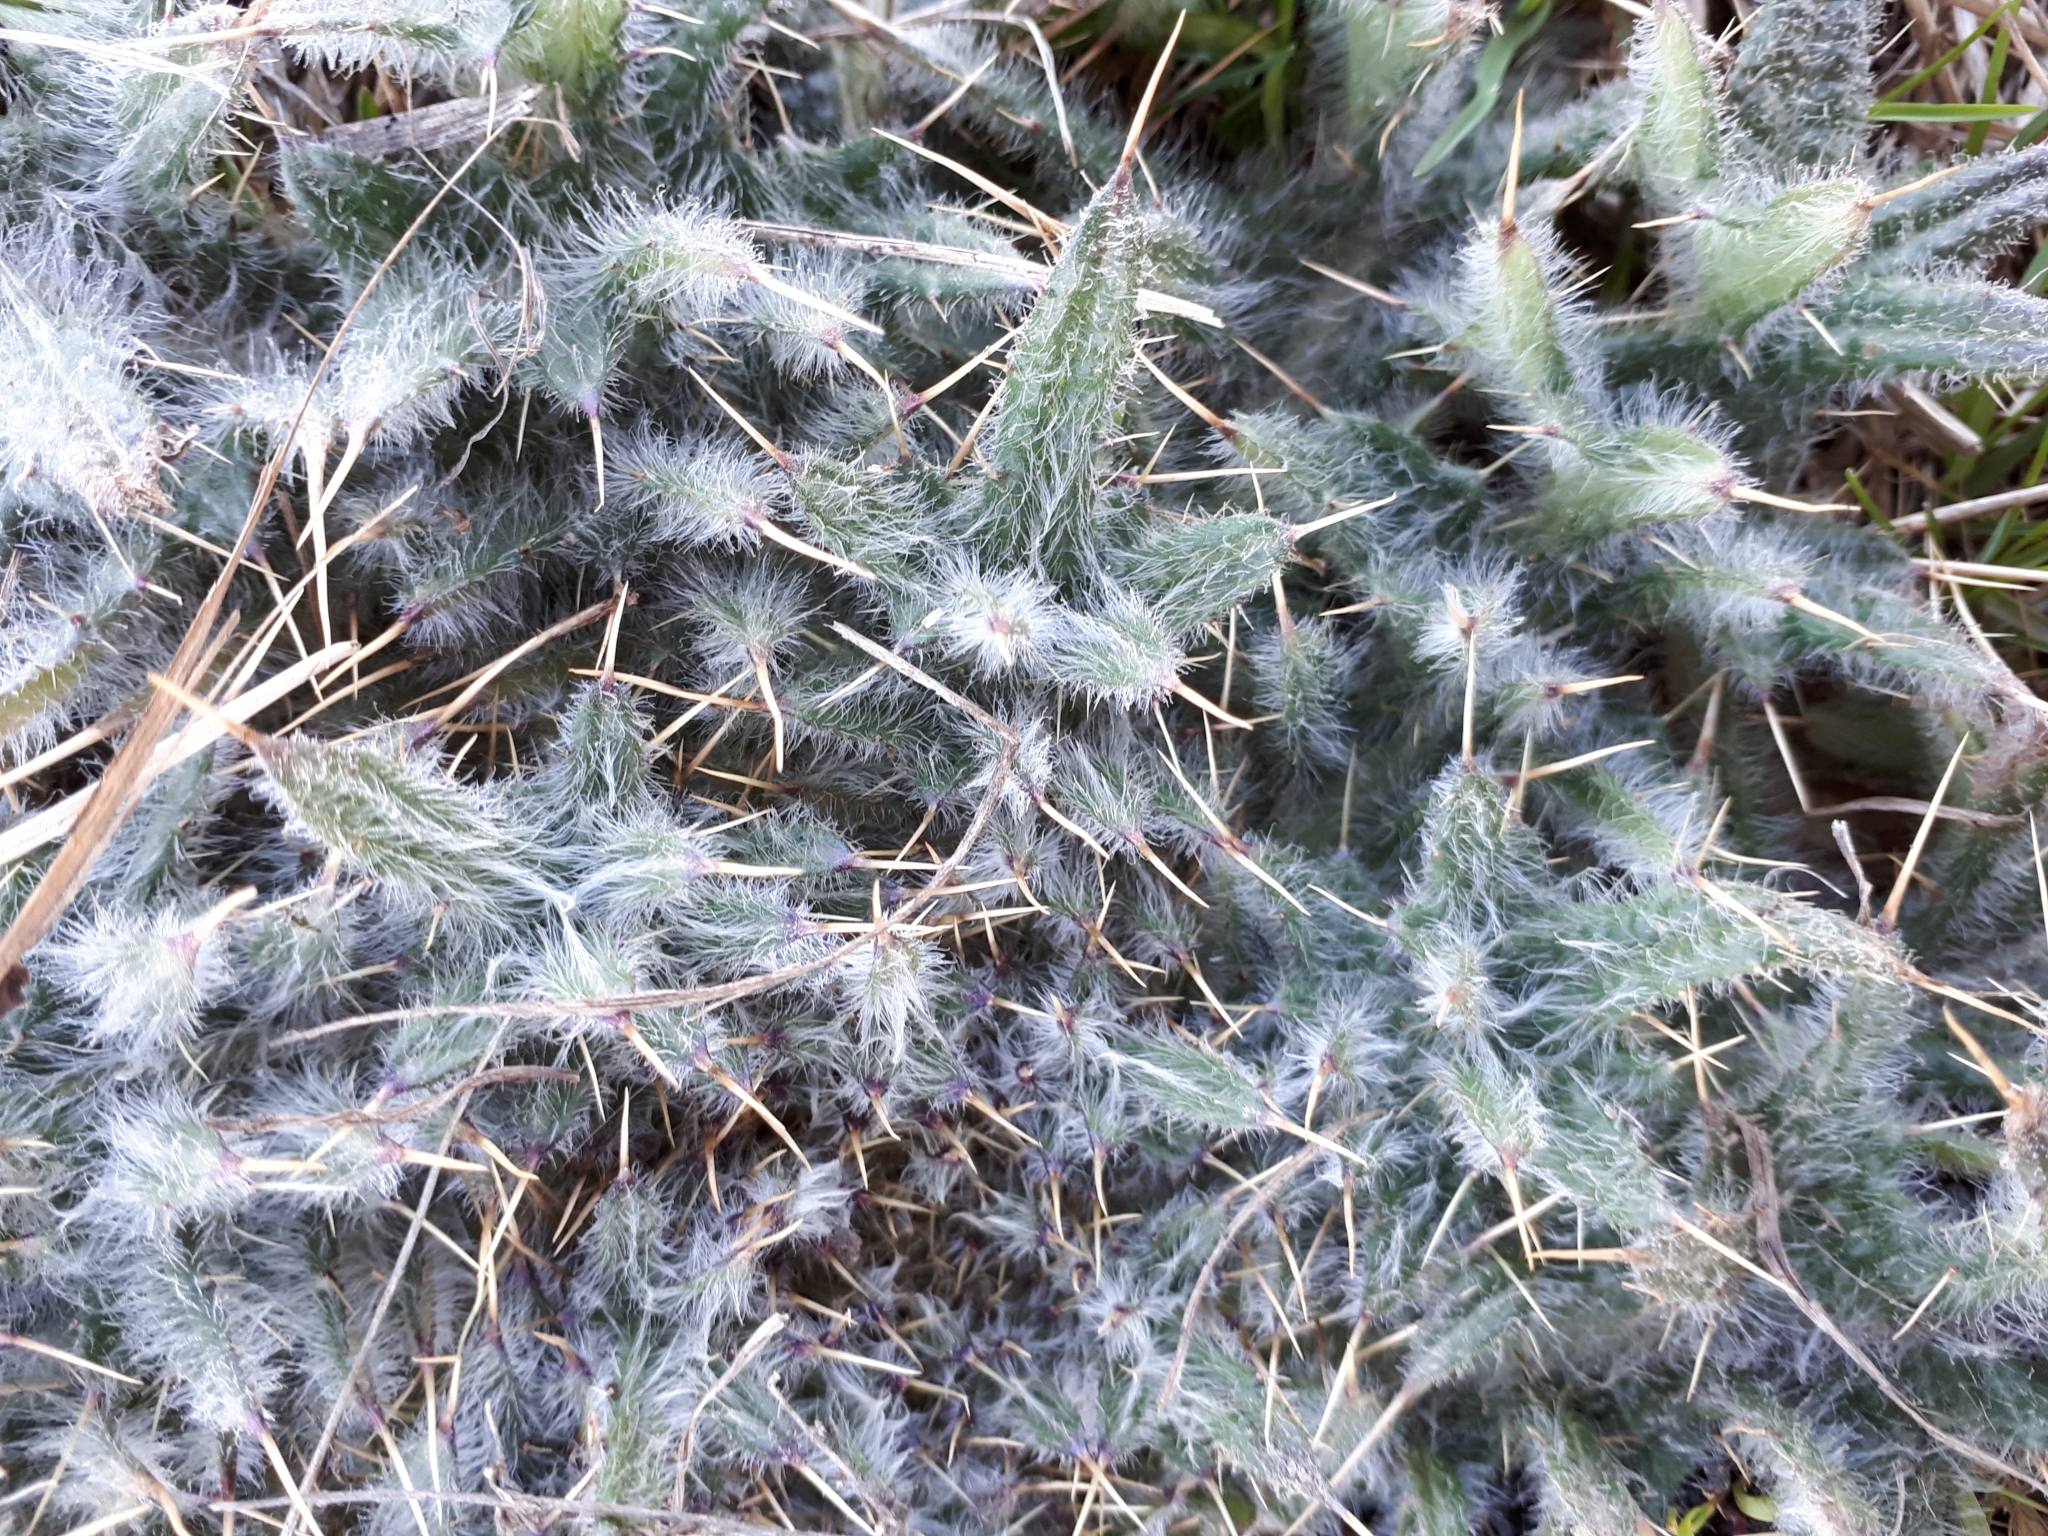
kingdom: Plantae
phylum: Tracheophyta
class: Magnoliopsida
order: Asterales
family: Asteraceae
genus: Cirsium
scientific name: Cirsium vulgare
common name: Bull thistle
